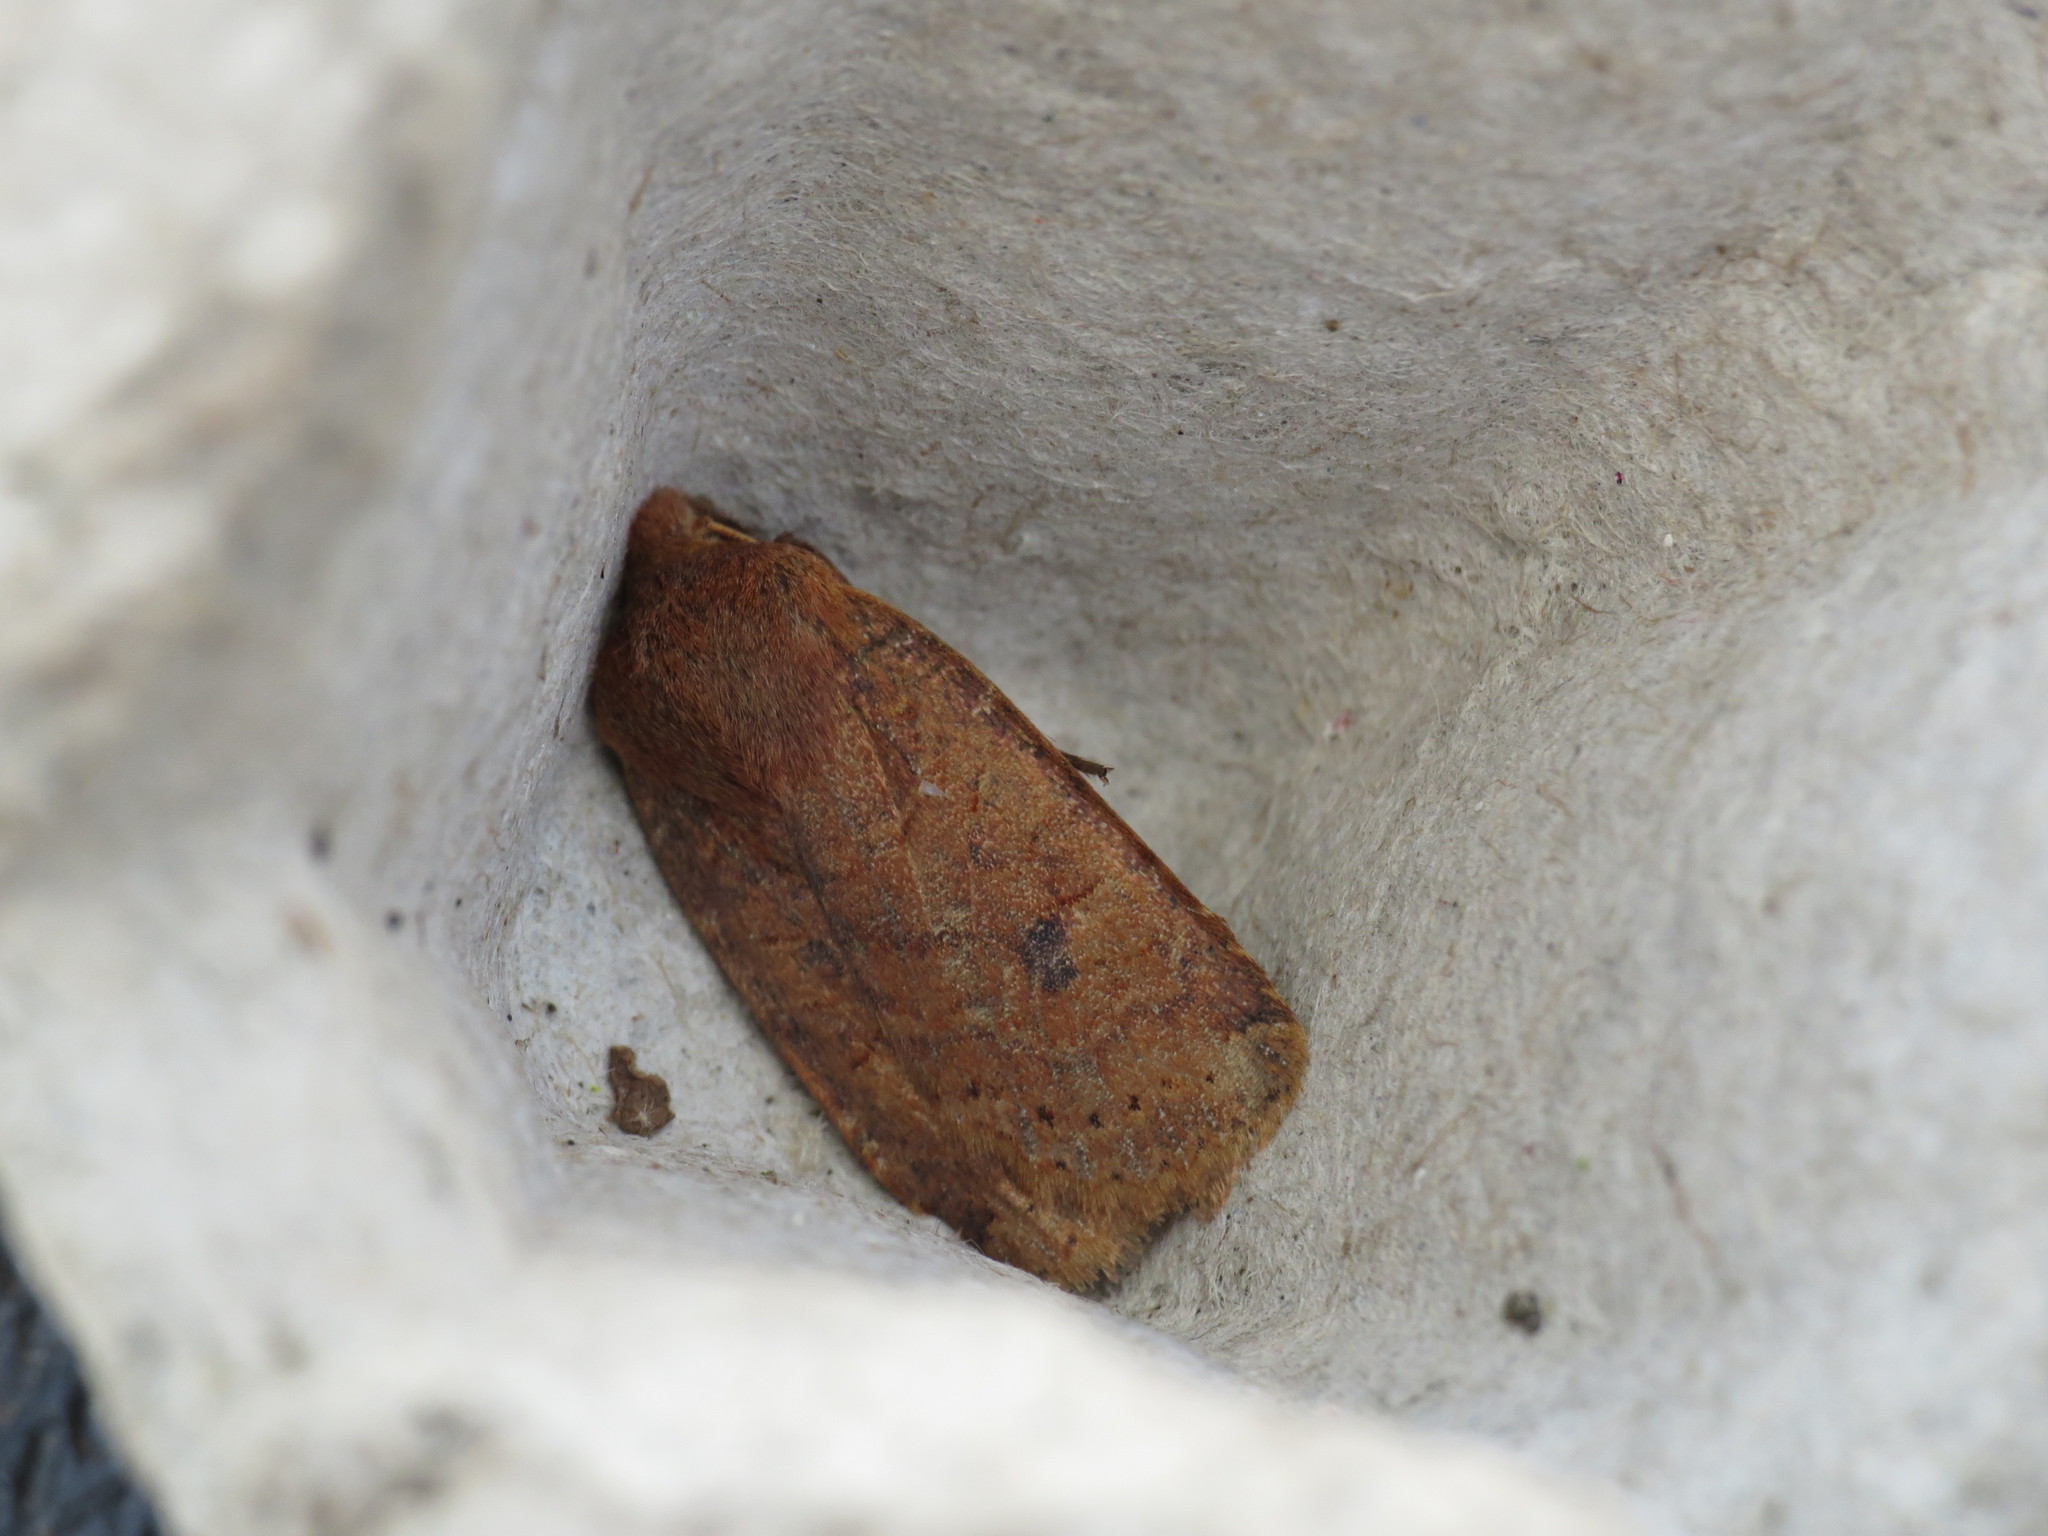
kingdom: Animalia
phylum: Arthropoda
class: Insecta
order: Lepidoptera
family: Noctuidae
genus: Conistra
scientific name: Conistra vaccinii
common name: Chestnut
